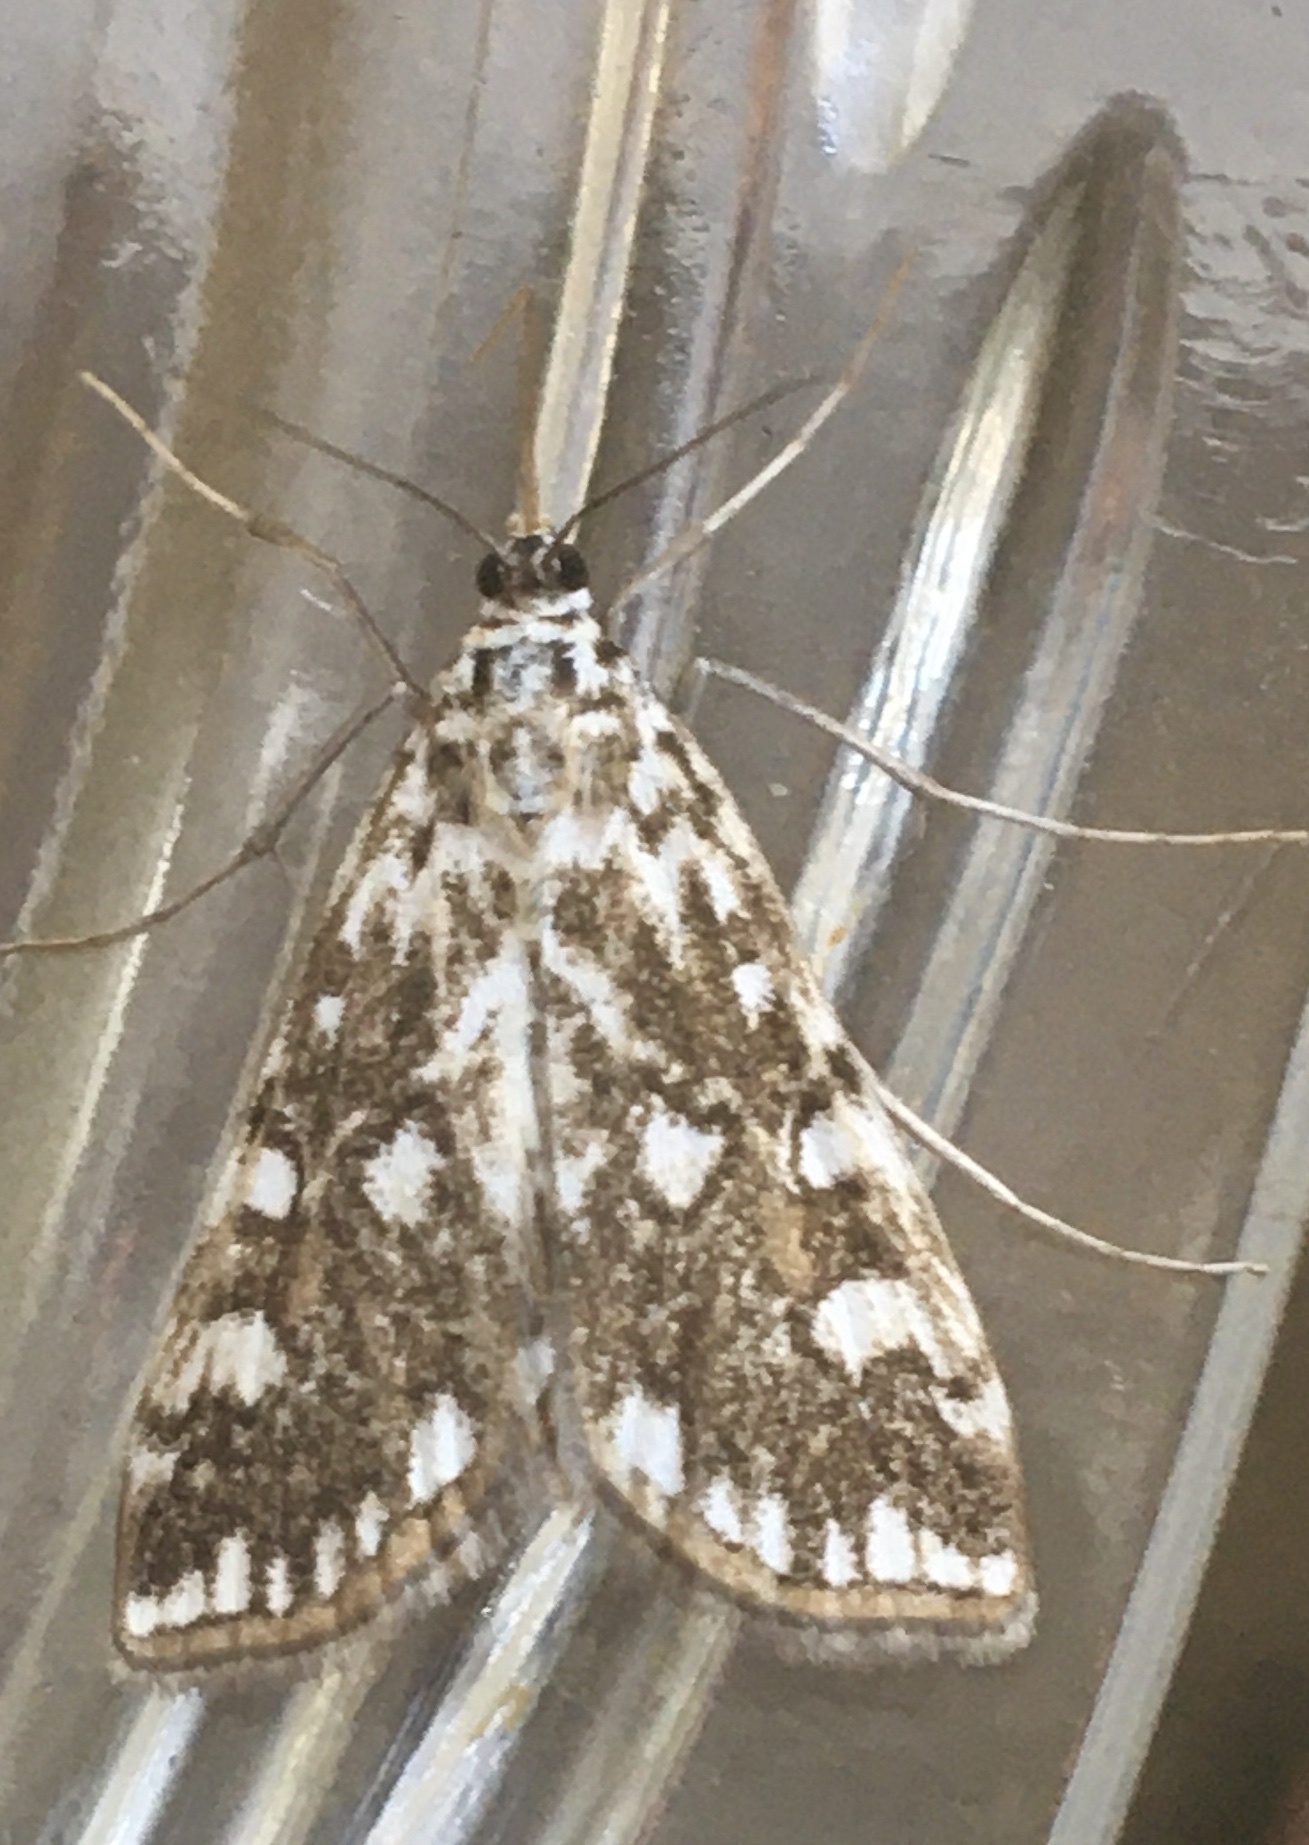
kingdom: Animalia
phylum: Arthropoda
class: Insecta
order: Lepidoptera
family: Crambidae
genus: Elophila
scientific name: Elophila nymphaeata
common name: Brown china-mark
